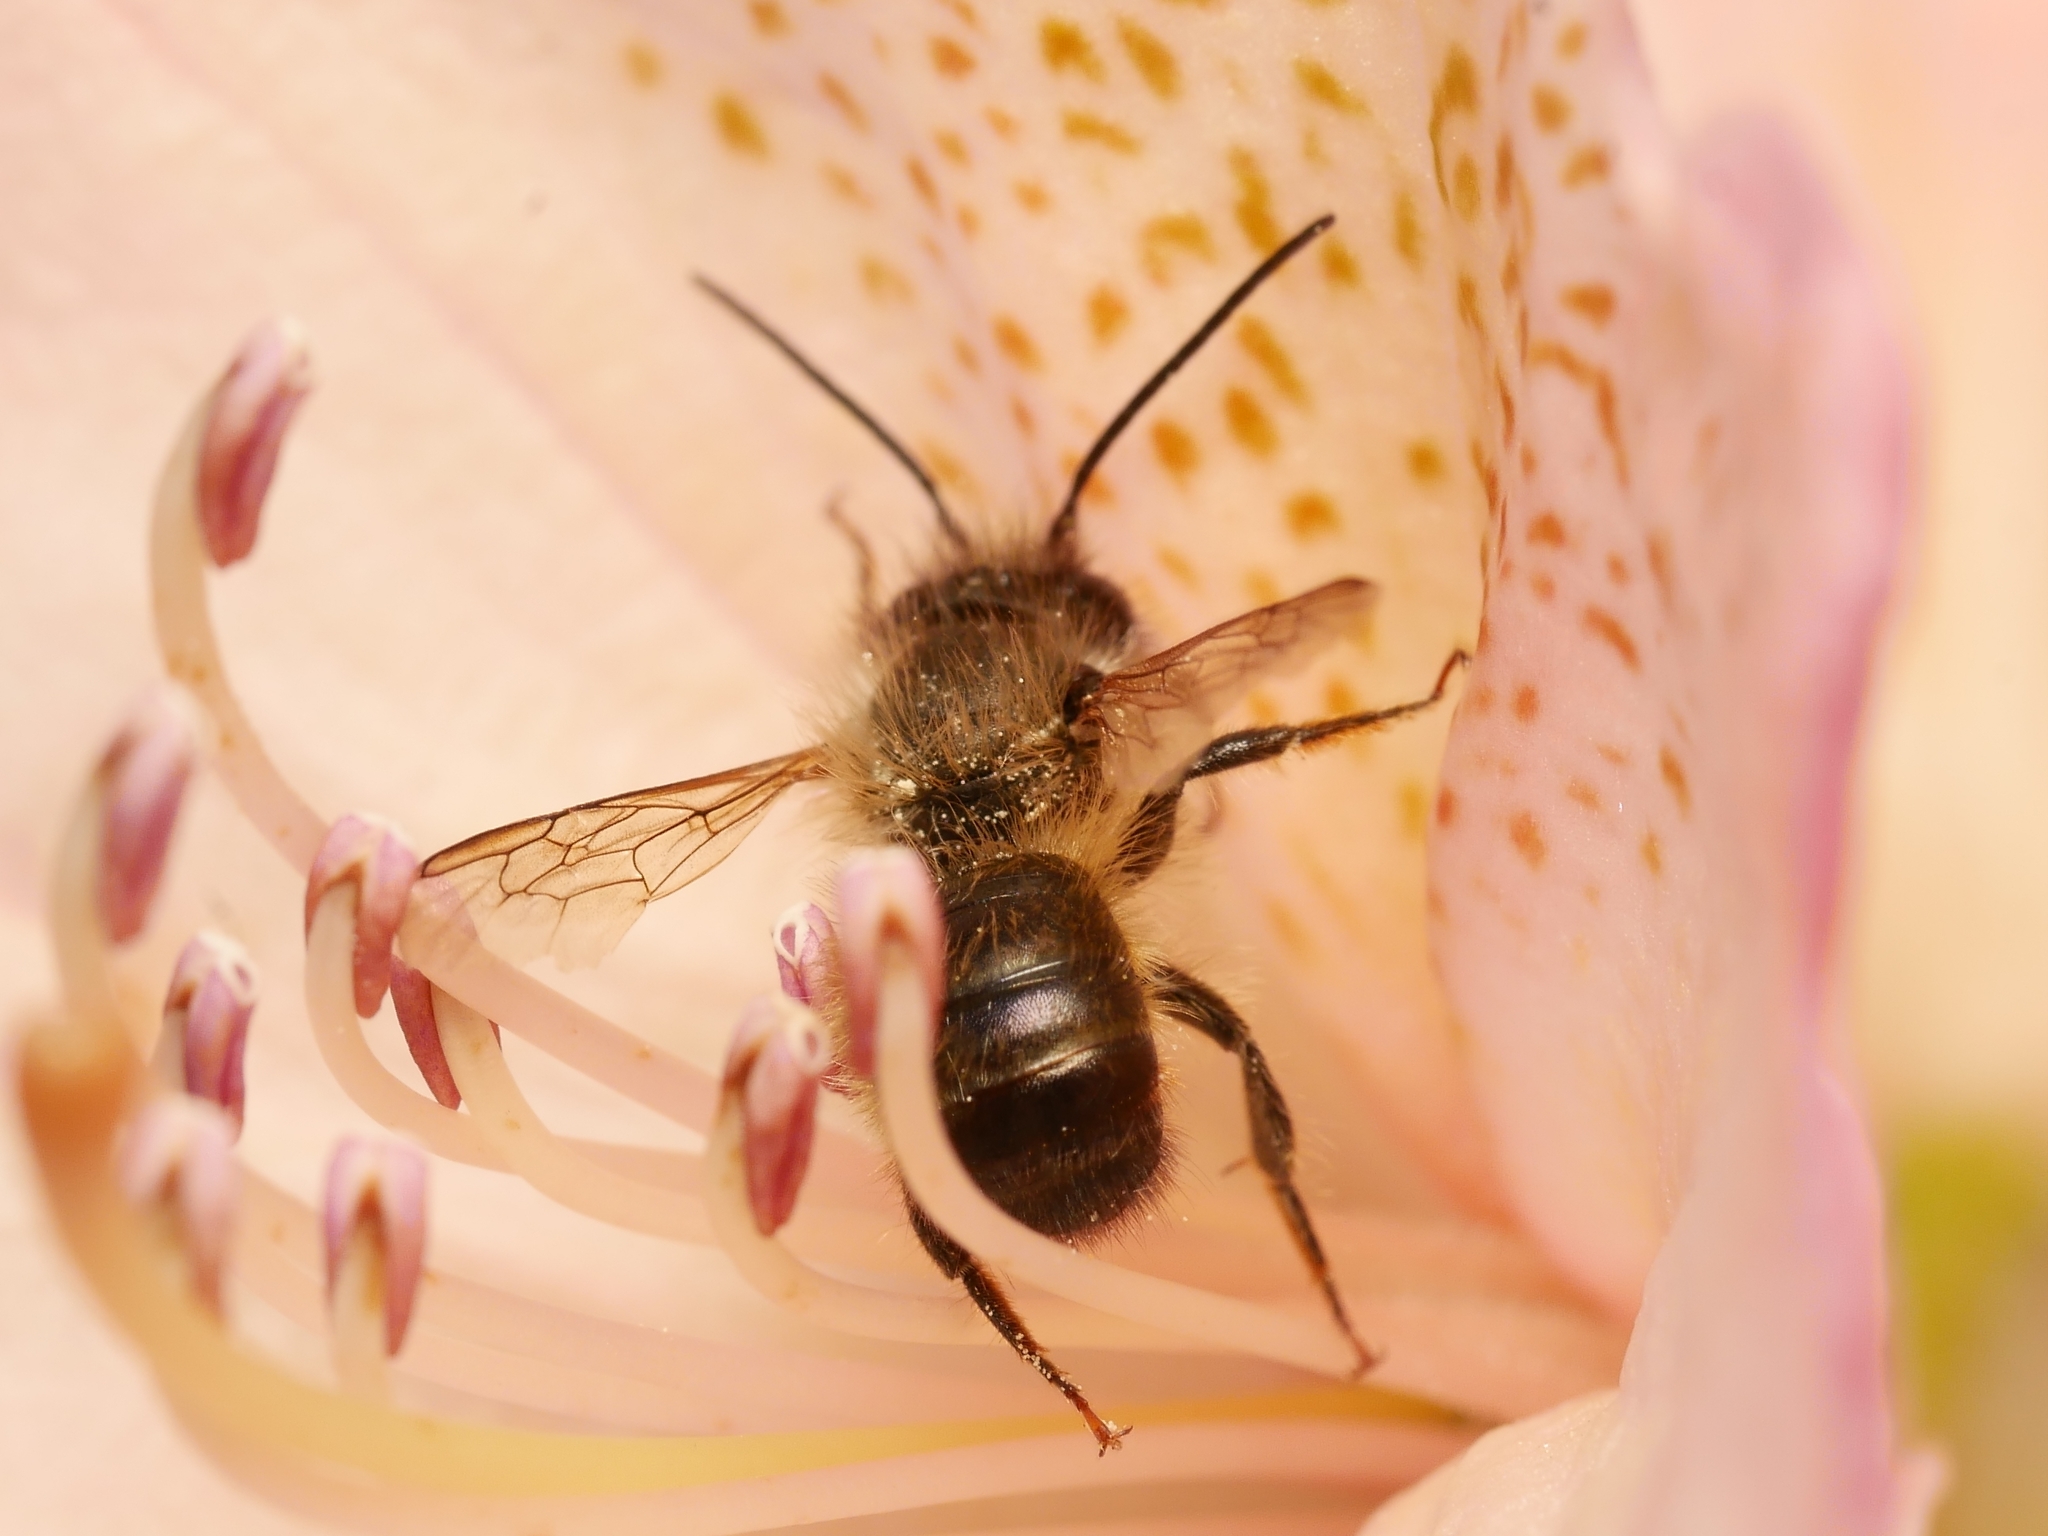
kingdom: Animalia
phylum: Arthropoda
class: Insecta
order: Hymenoptera
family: Megachilidae
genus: Osmia
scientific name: Osmia bicornis
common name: Red mason bee
